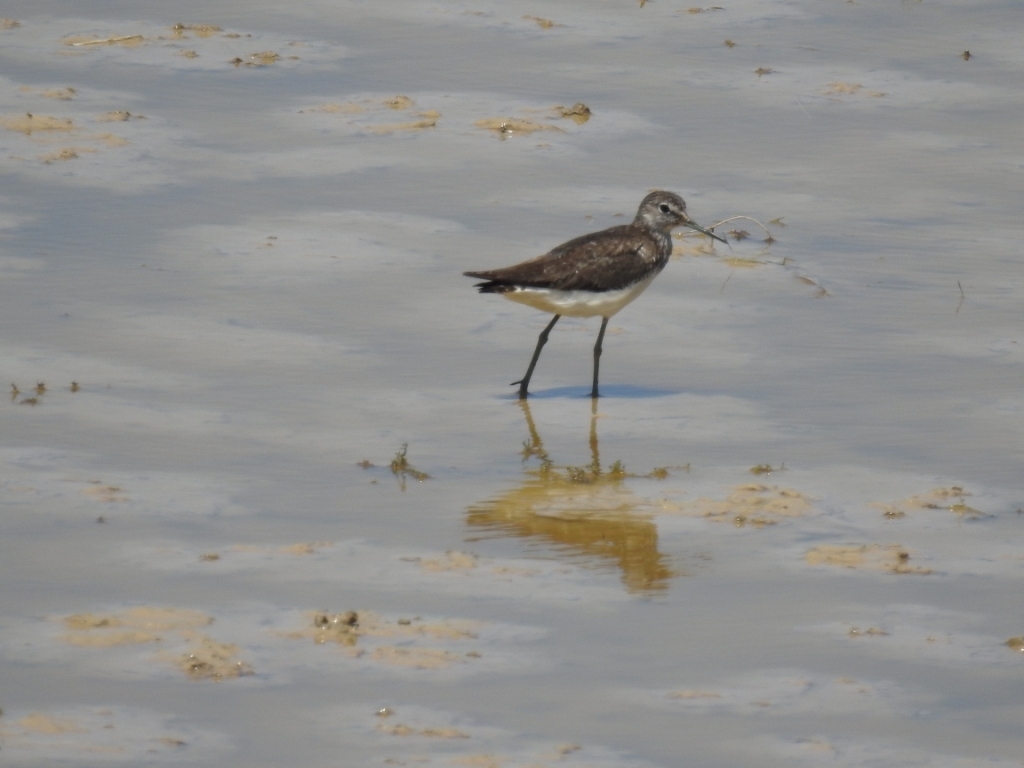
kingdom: Animalia
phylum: Chordata
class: Aves
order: Charadriiformes
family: Scolopacidae
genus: Tringa
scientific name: Tringa ochropus
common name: Green sandpiper
